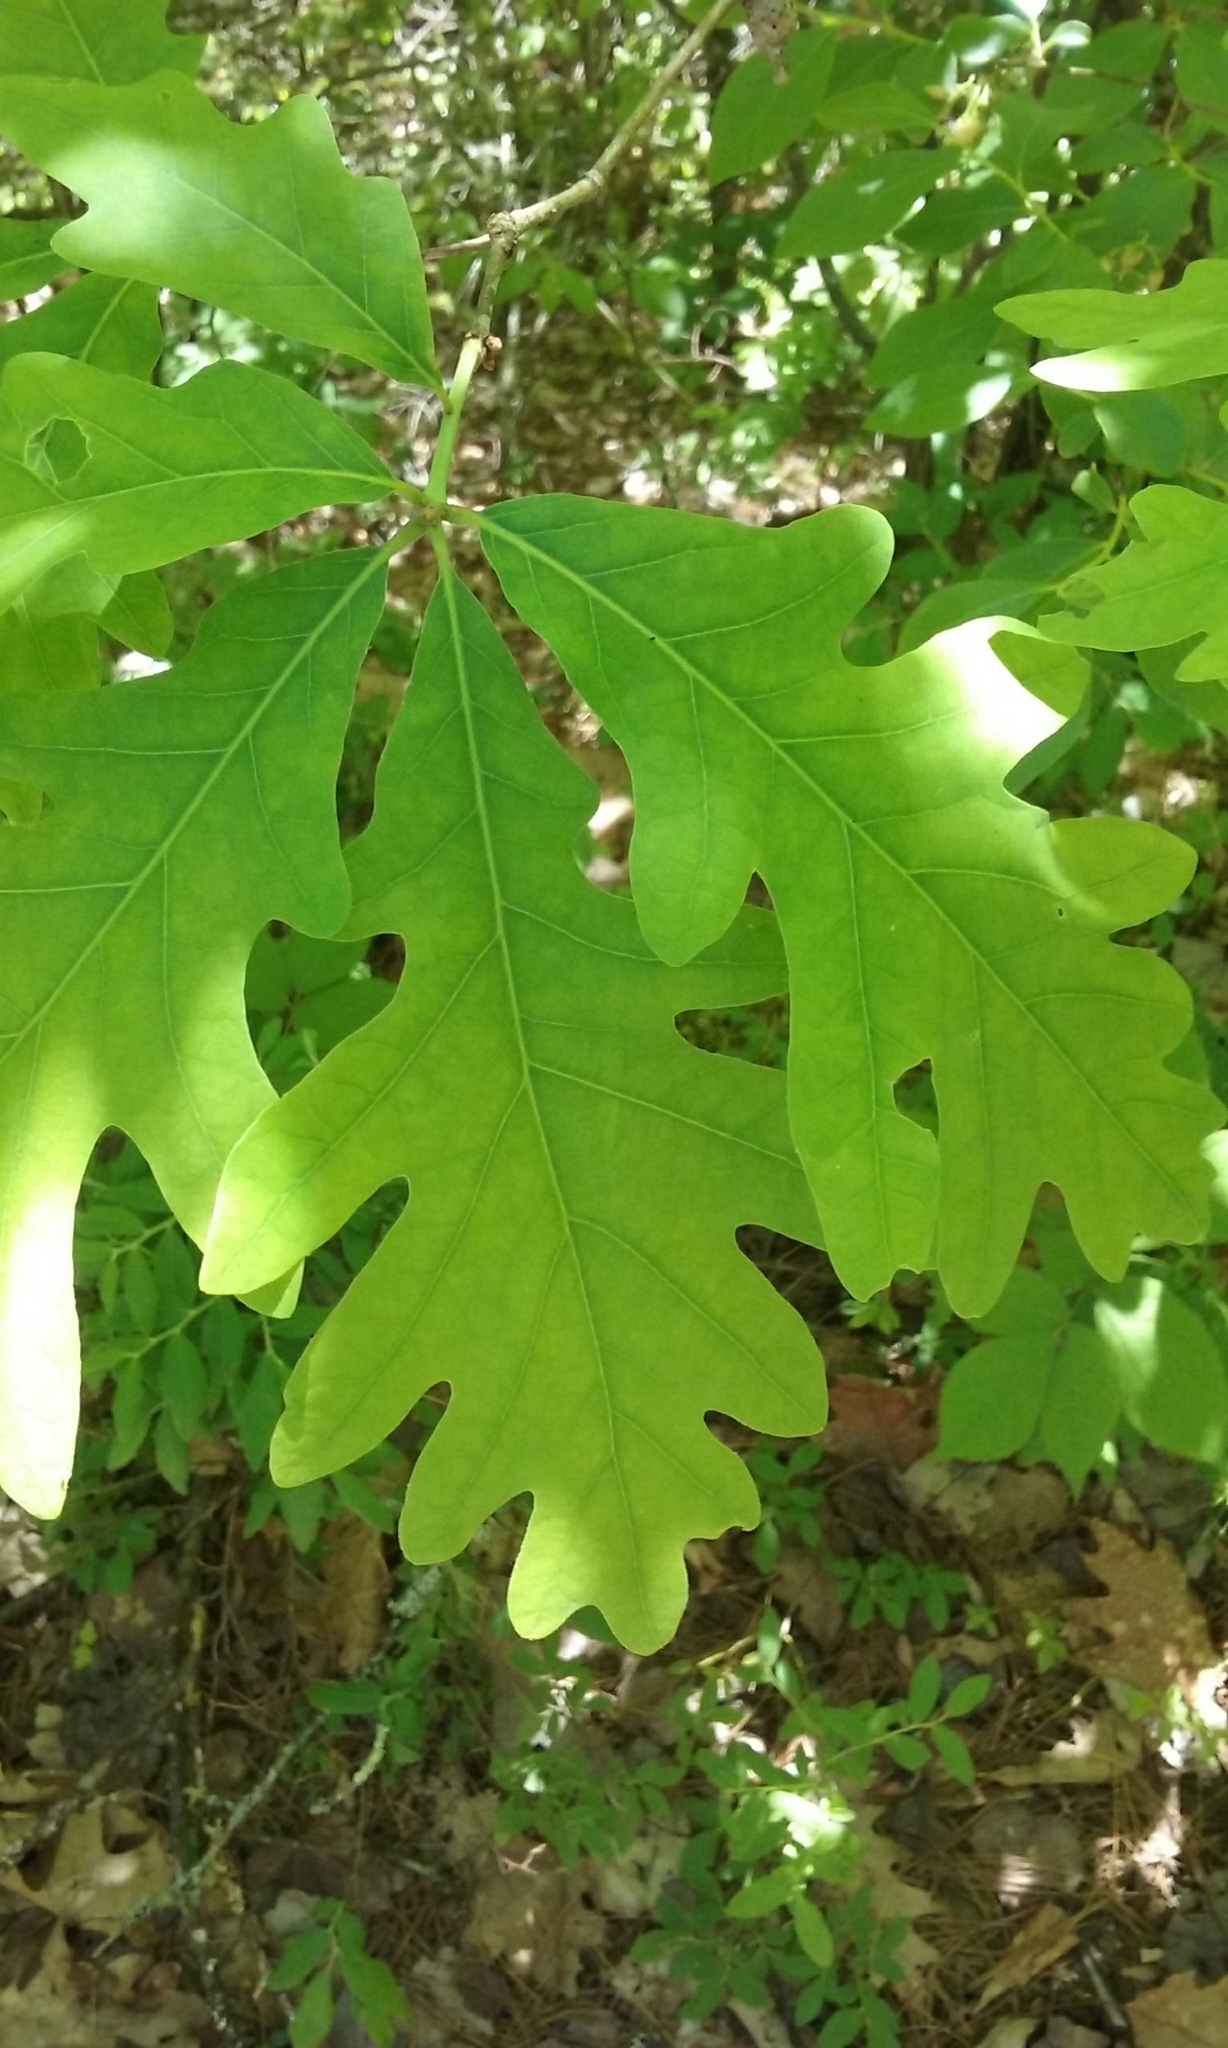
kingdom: Plantae
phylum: Tracheophyta
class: Magnoliopsida
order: Fagales
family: Fagaceae
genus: Quercus
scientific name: Quercus alba
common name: White oak
